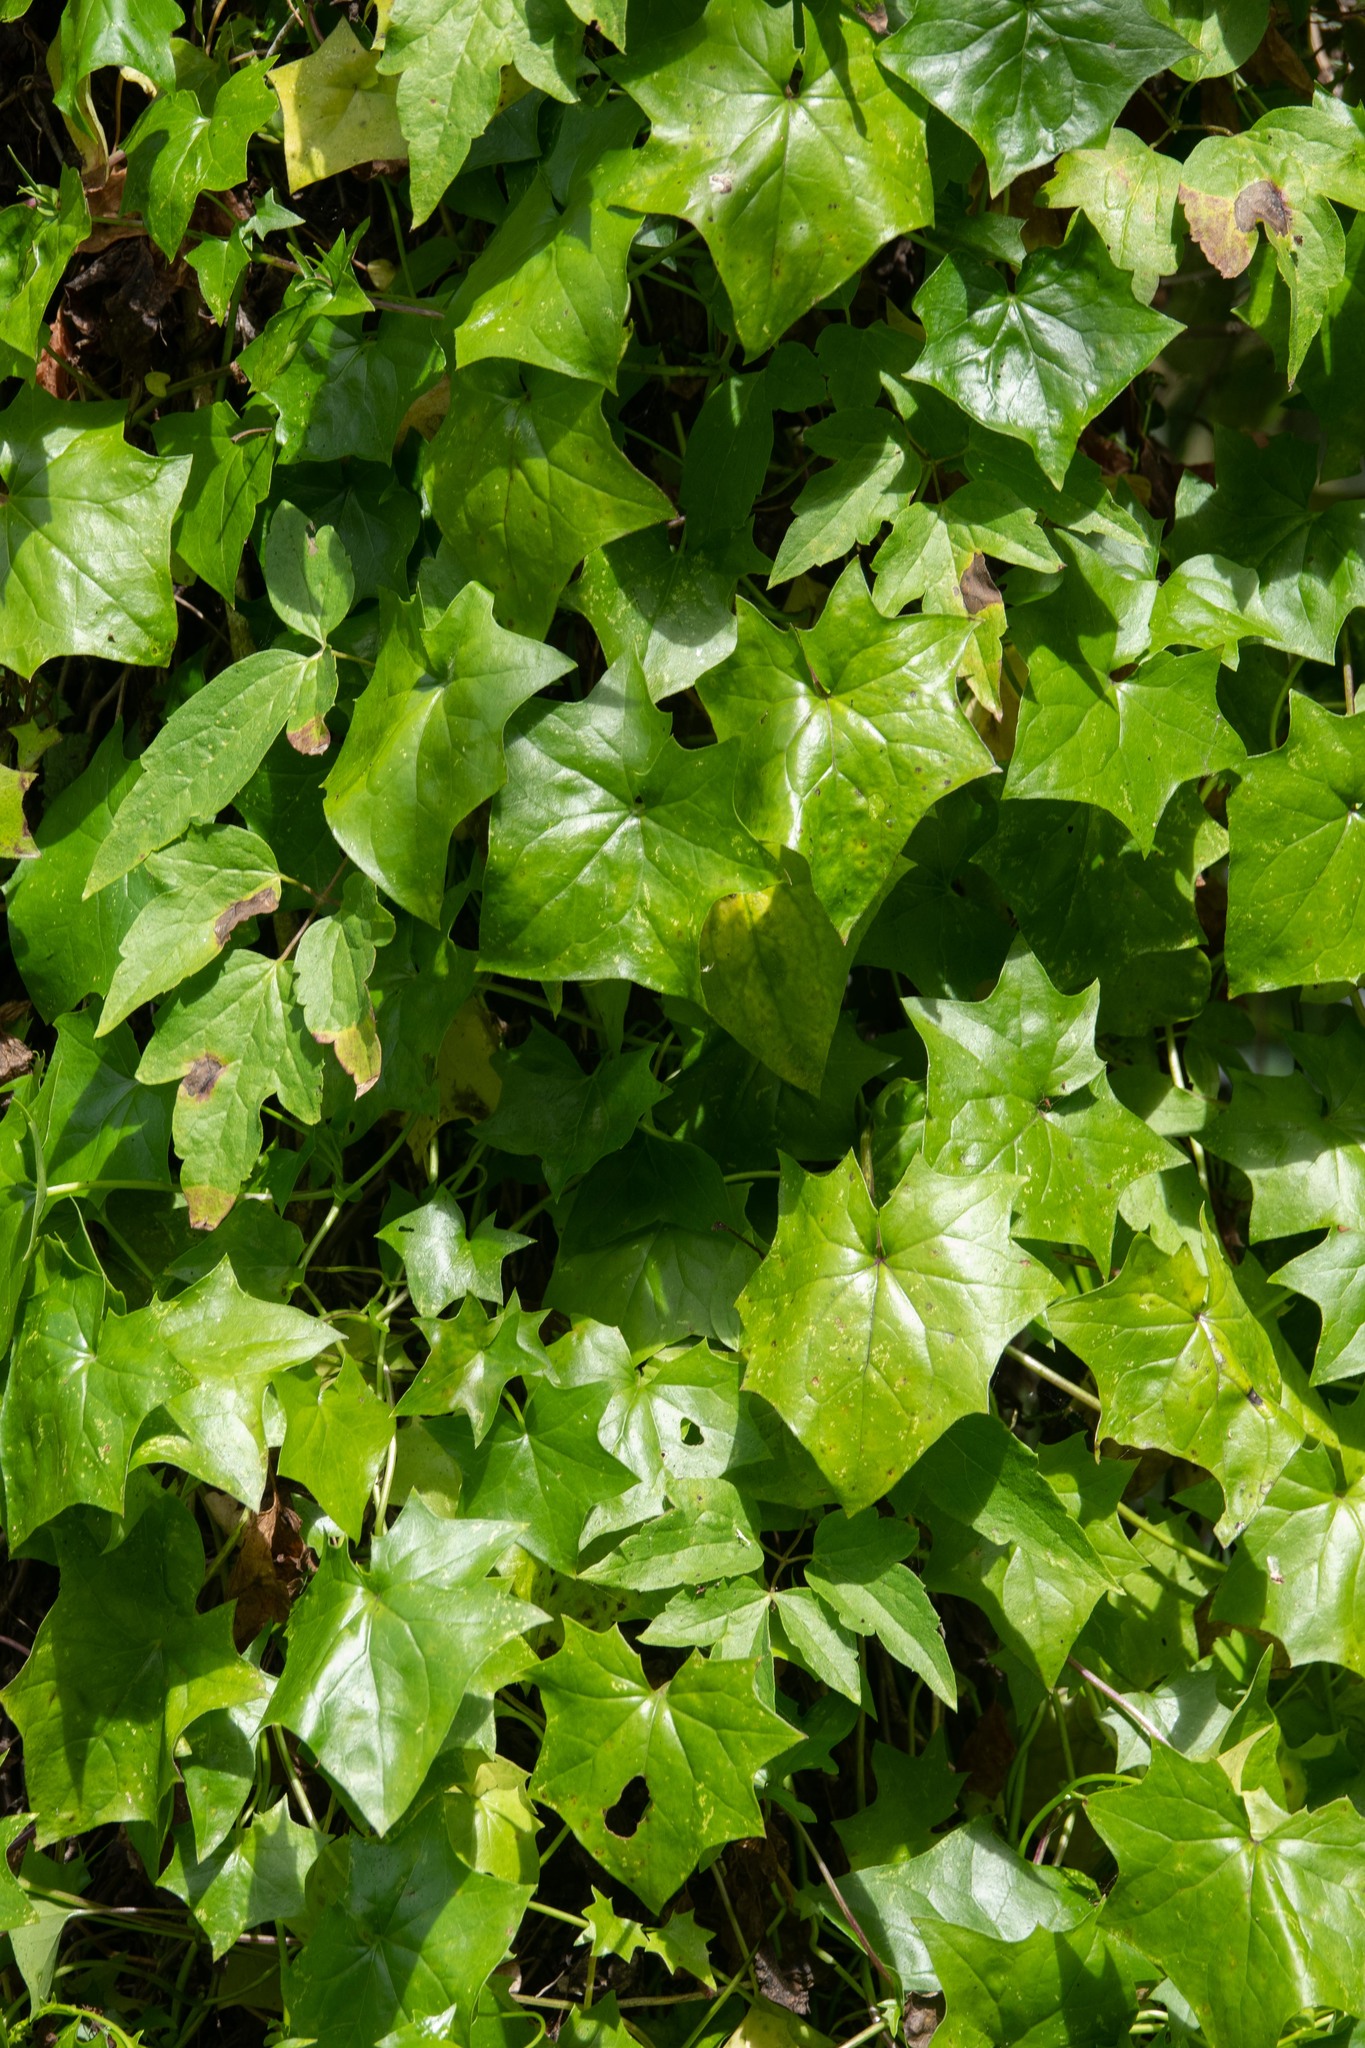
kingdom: Plantae
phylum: Tracheophyta
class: Magnoliopsida
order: Asterales
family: Asteraceae
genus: Delairea
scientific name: Delairea odorata
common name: Cape-ivy
